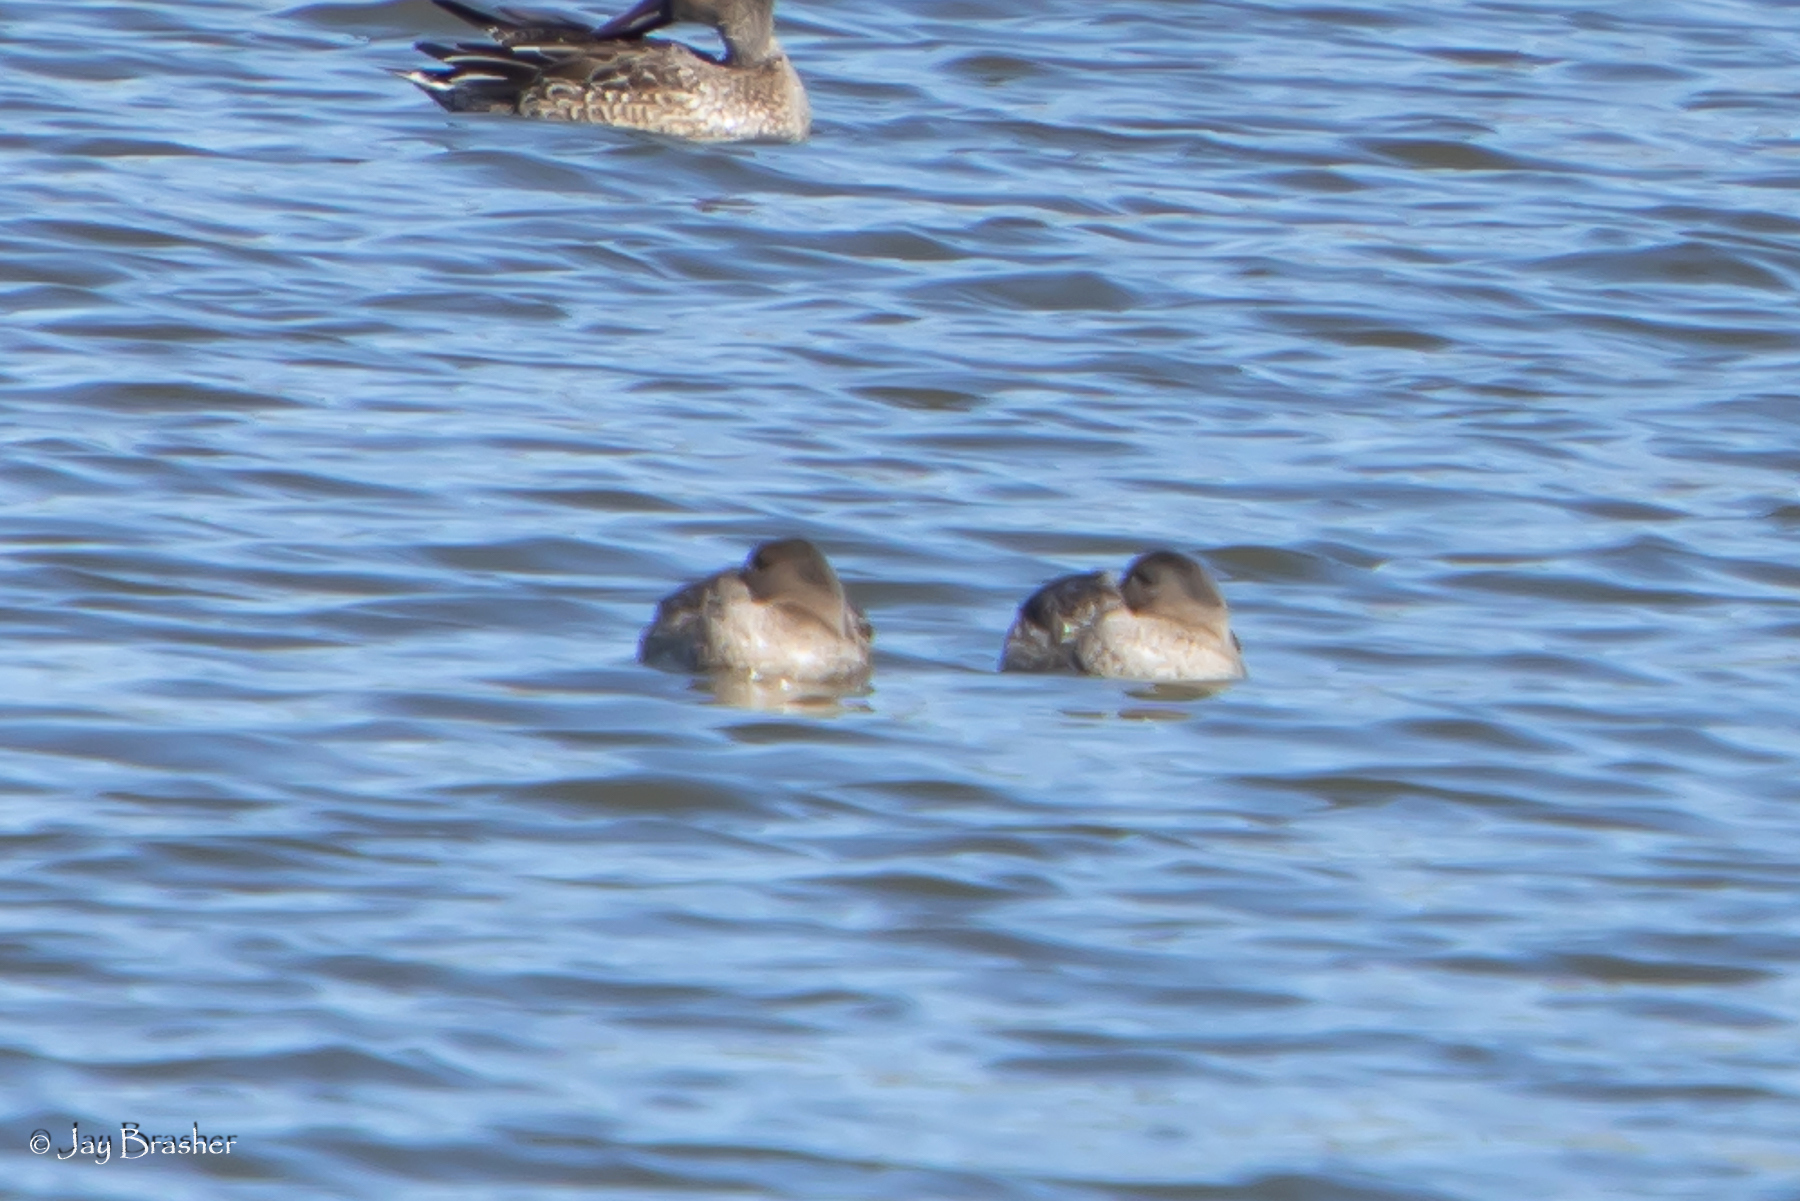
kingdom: Animalia
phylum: Chordata
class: Aves
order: Anseriformes
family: Anatidae
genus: Mareca
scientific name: Mareca strepera
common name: Gadwall
